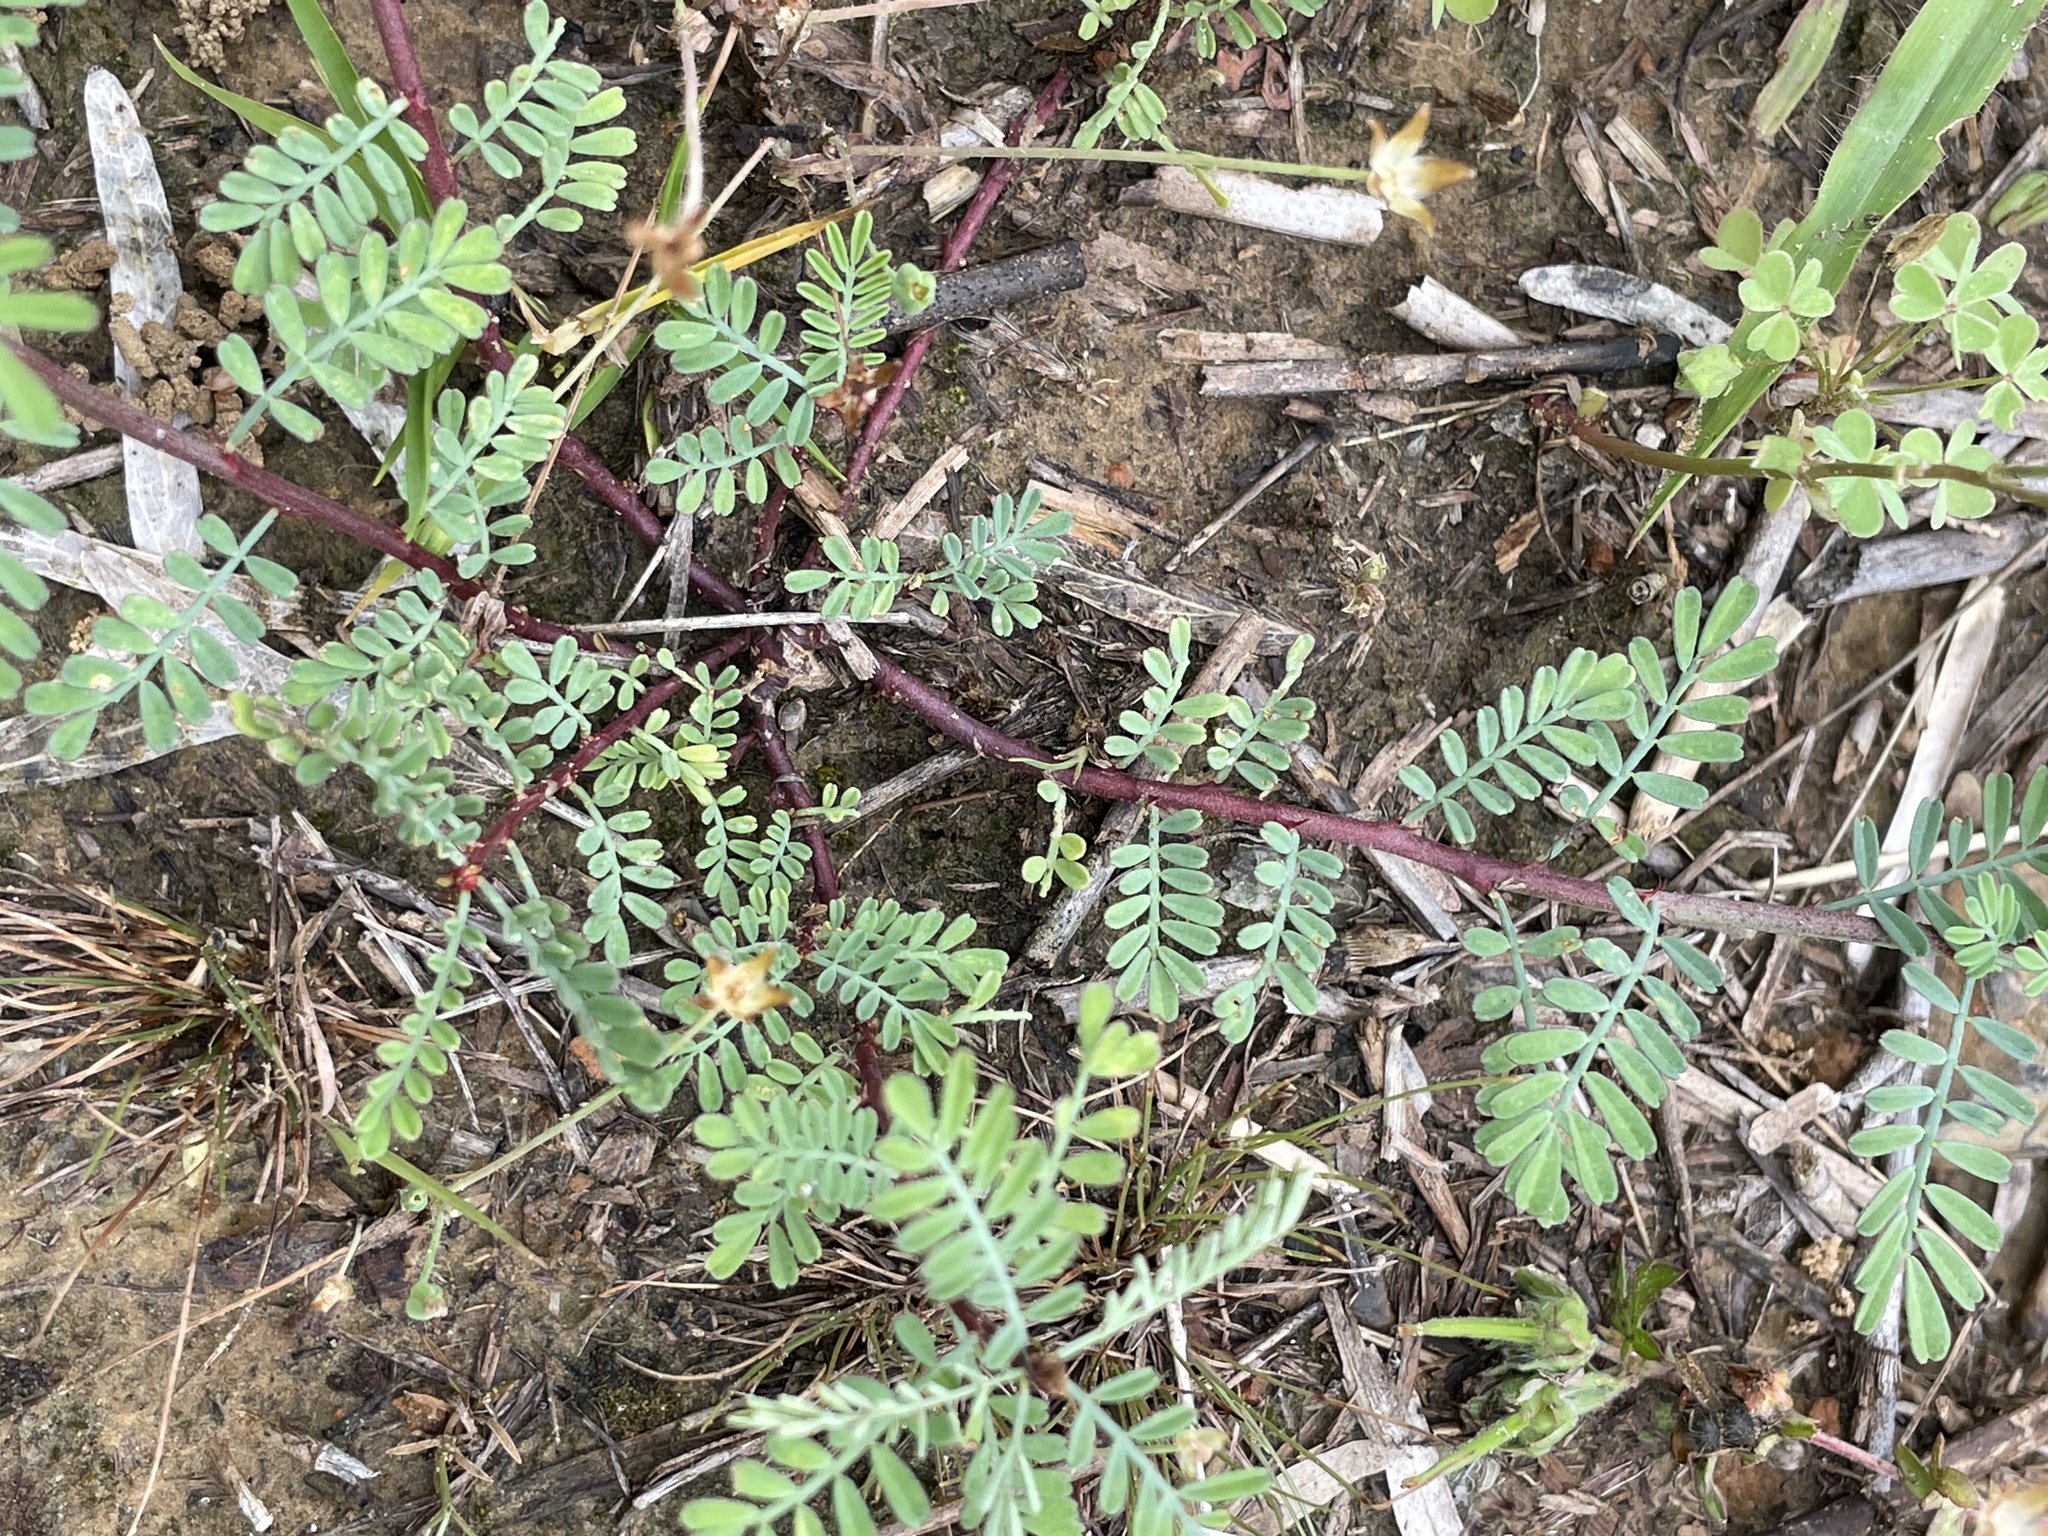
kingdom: Plantae
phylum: Tracheophyta
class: Magnoliopsida
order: Fabales
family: Fabaceae
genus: Dalea
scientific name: Dalea emarginata
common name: Wedgeleaf prairie clover
